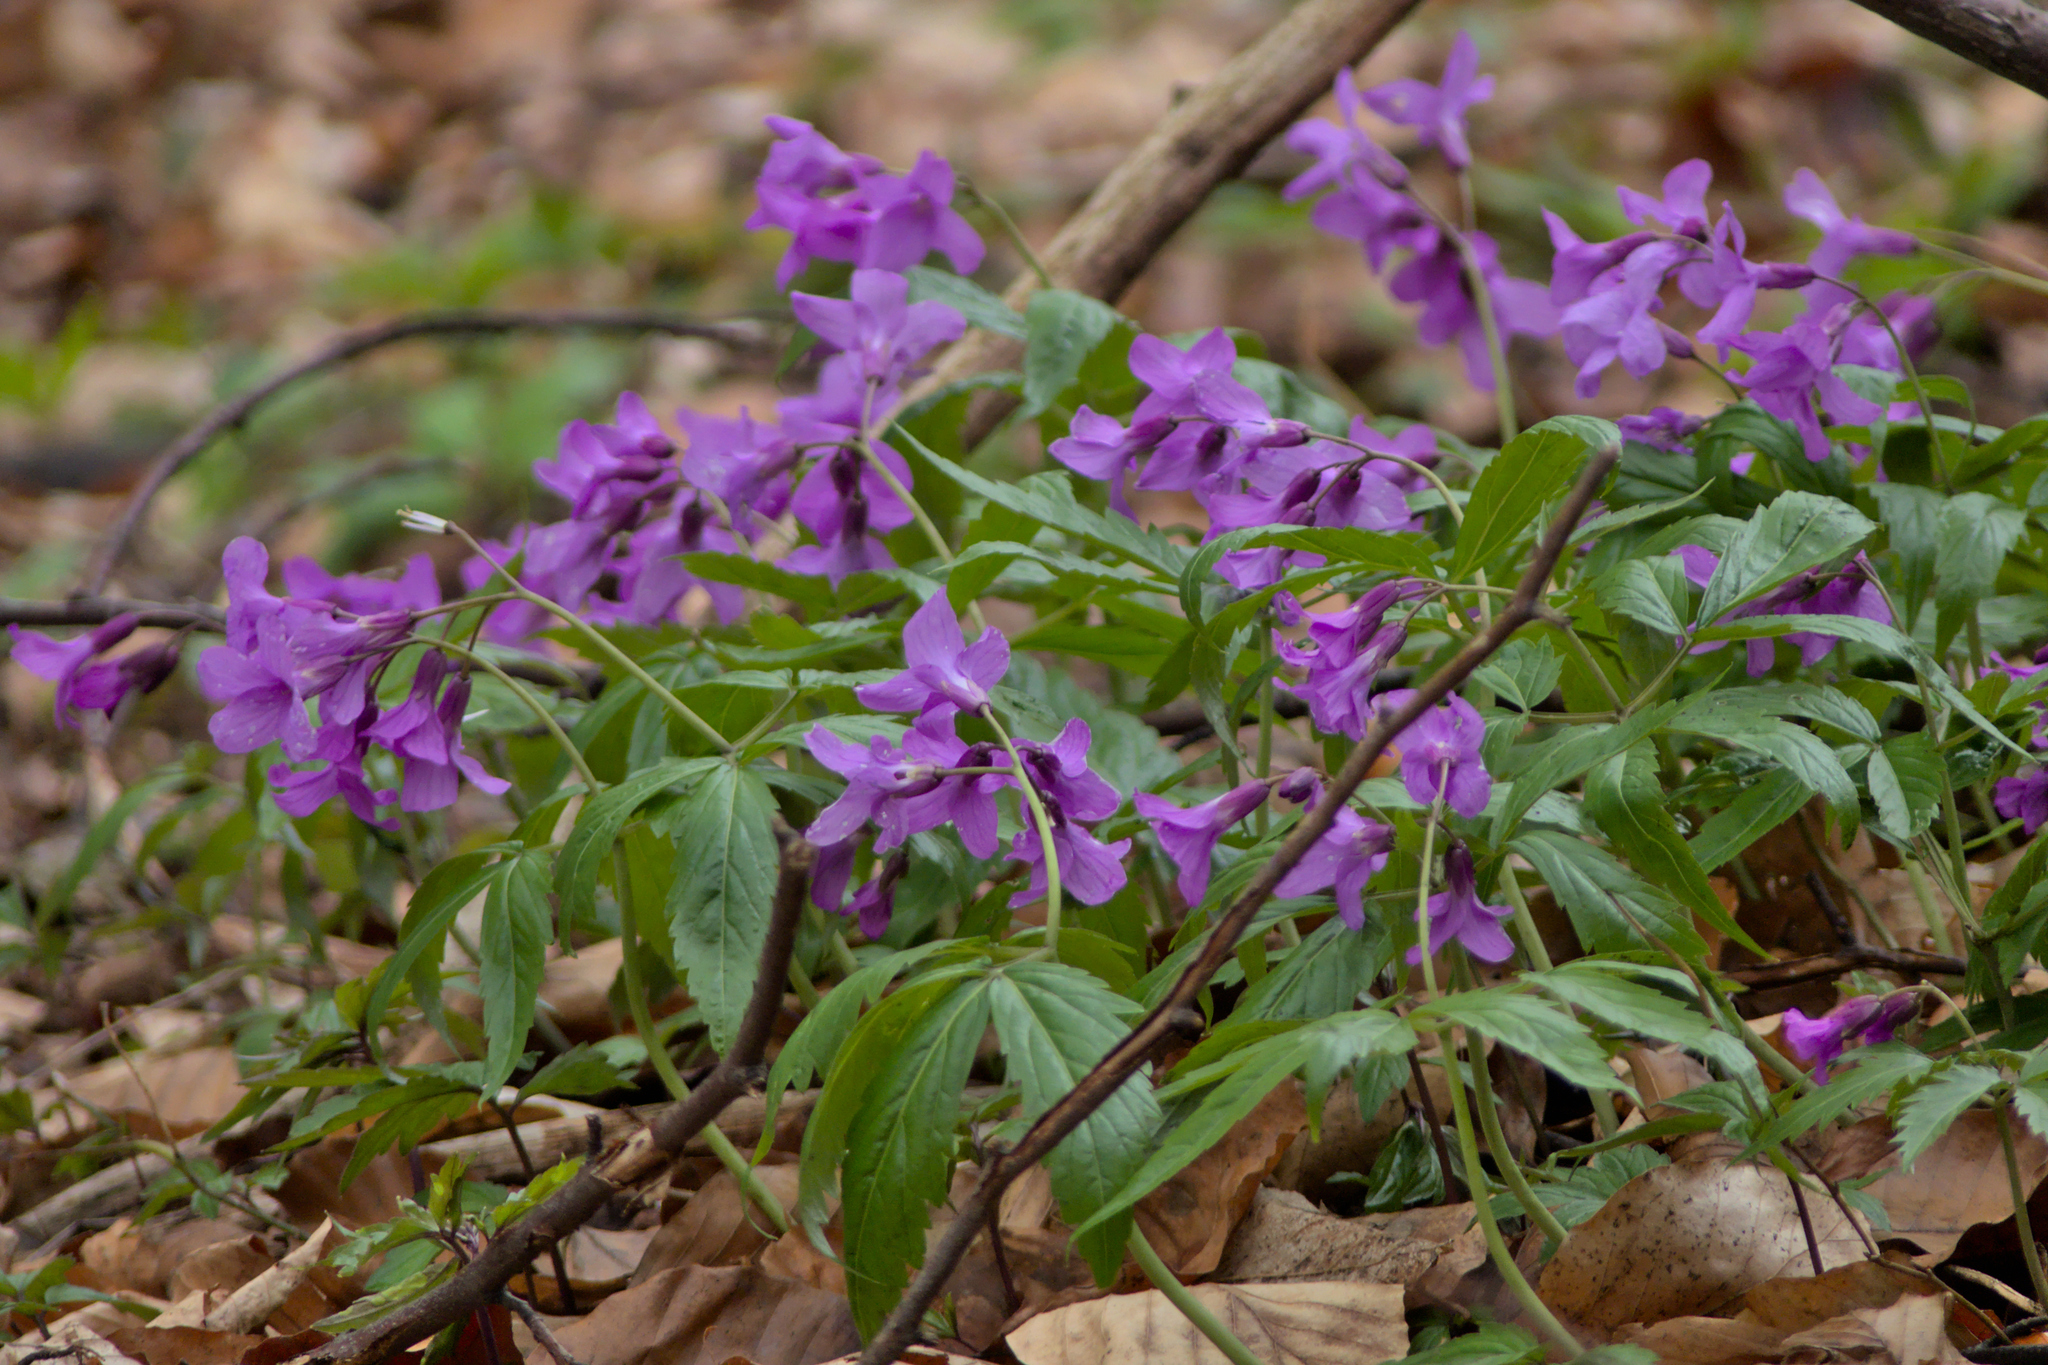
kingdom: Plantae
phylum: Tracheophyta
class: Magnoliopsida
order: Brassicales
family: Brassicaceae
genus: Cardamine
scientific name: Cardamine glanduligera
